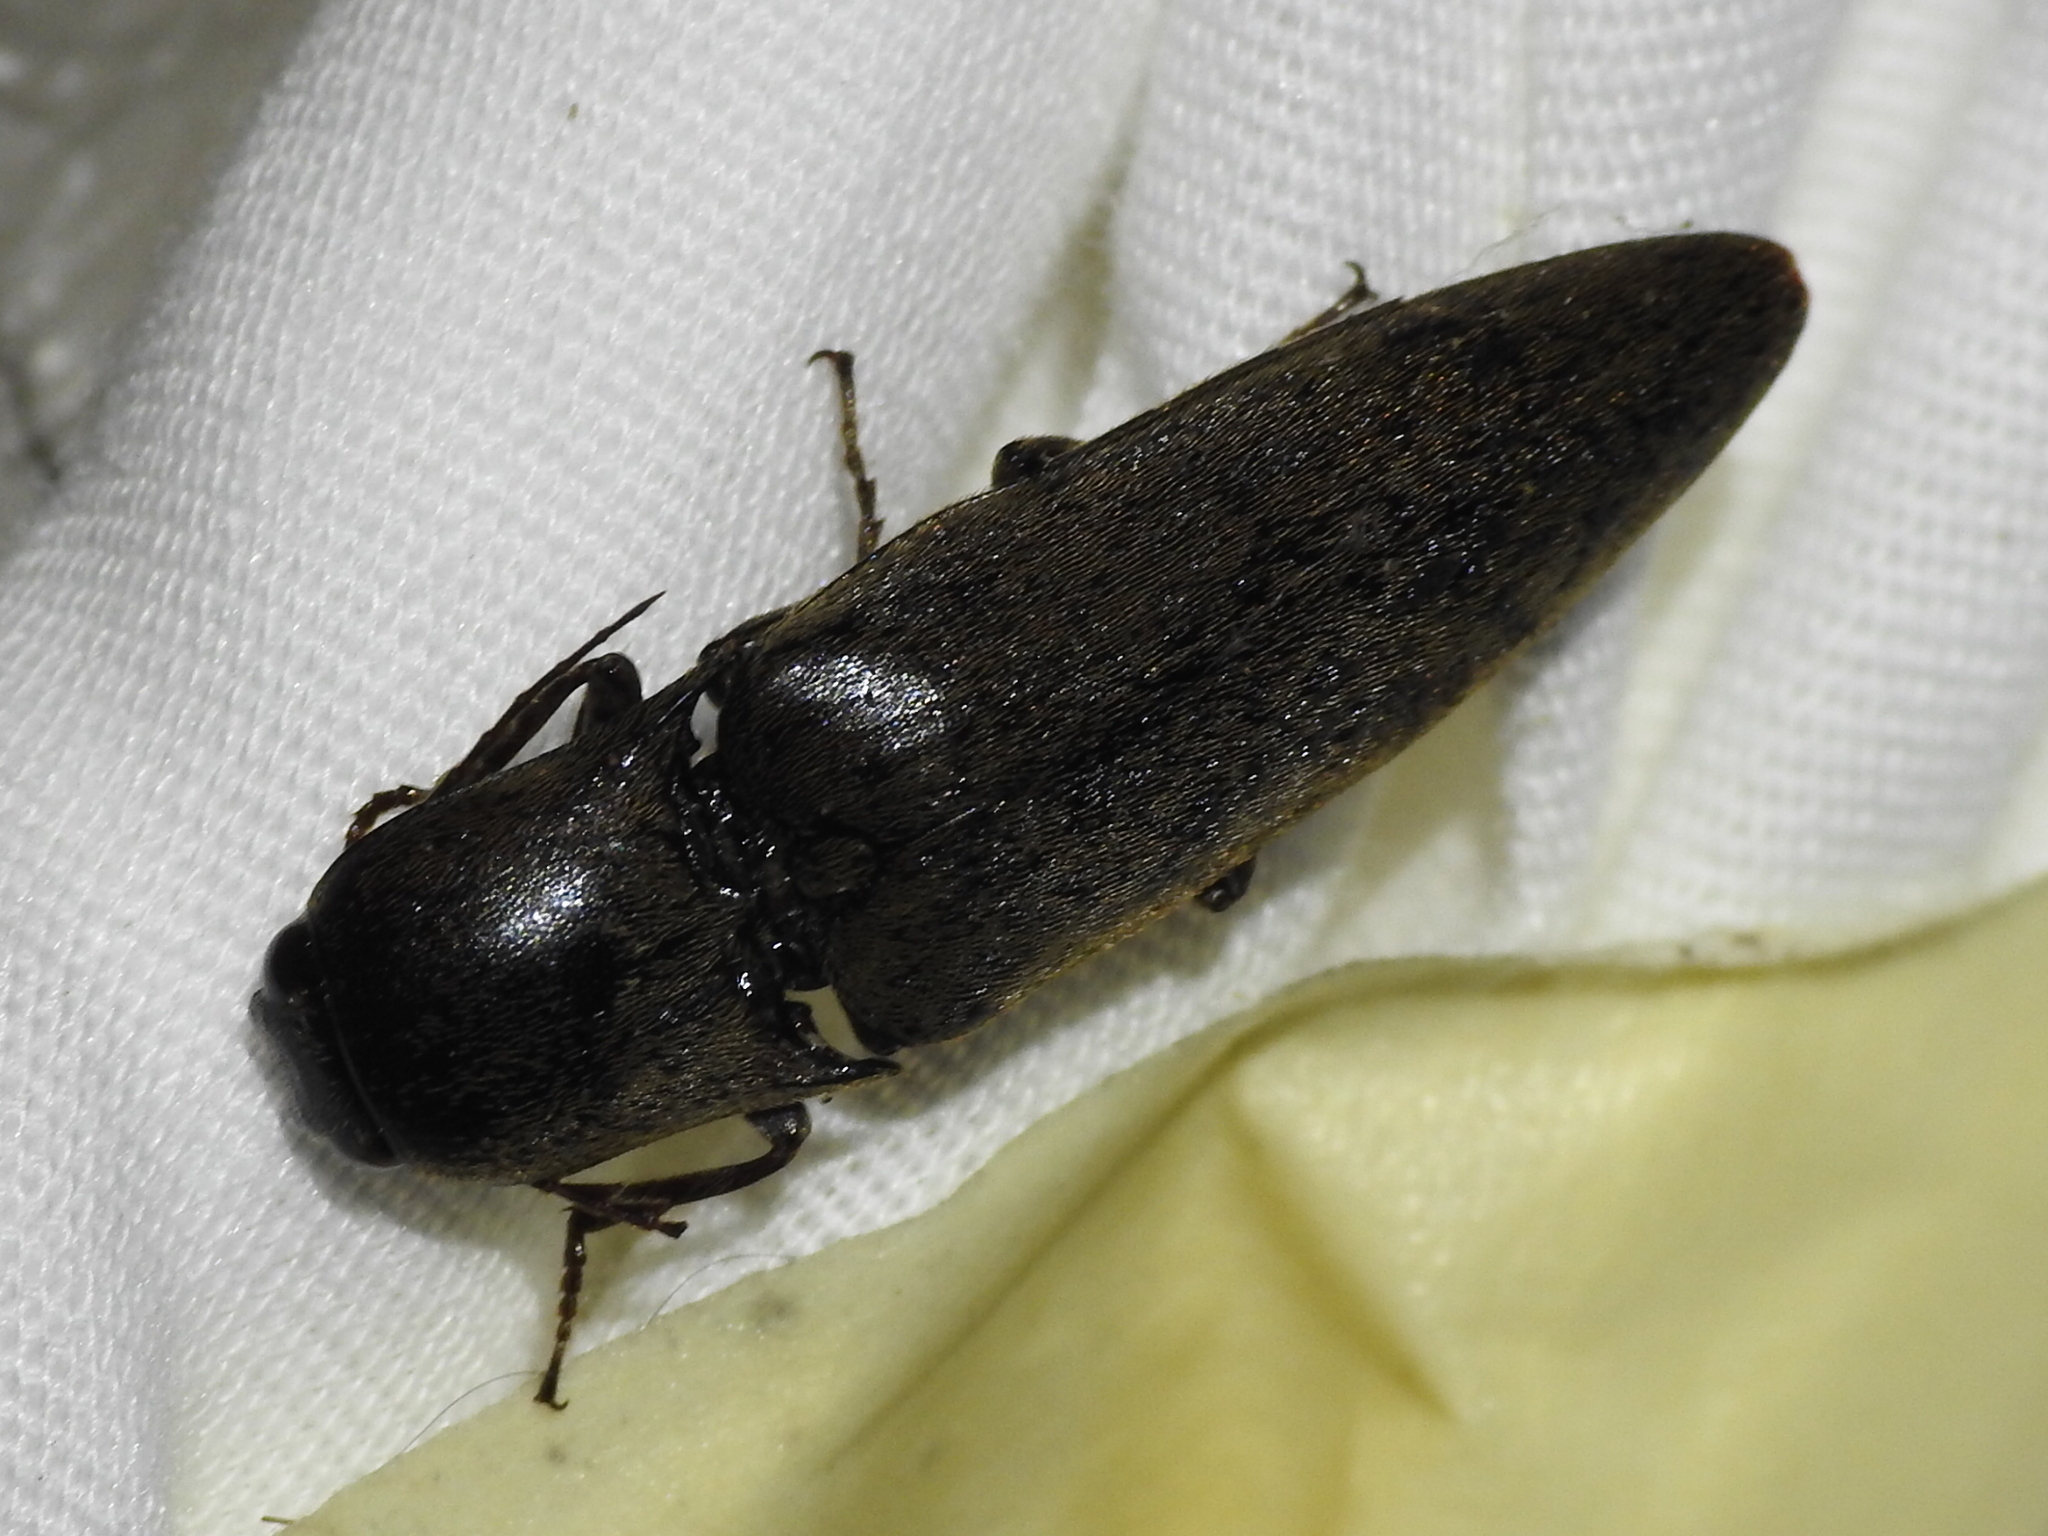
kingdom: Animalia
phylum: Arthropoda
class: Insecta
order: Coleoptera
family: Elateridae
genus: Orthostethus
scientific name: Orthostethus infuscatus
